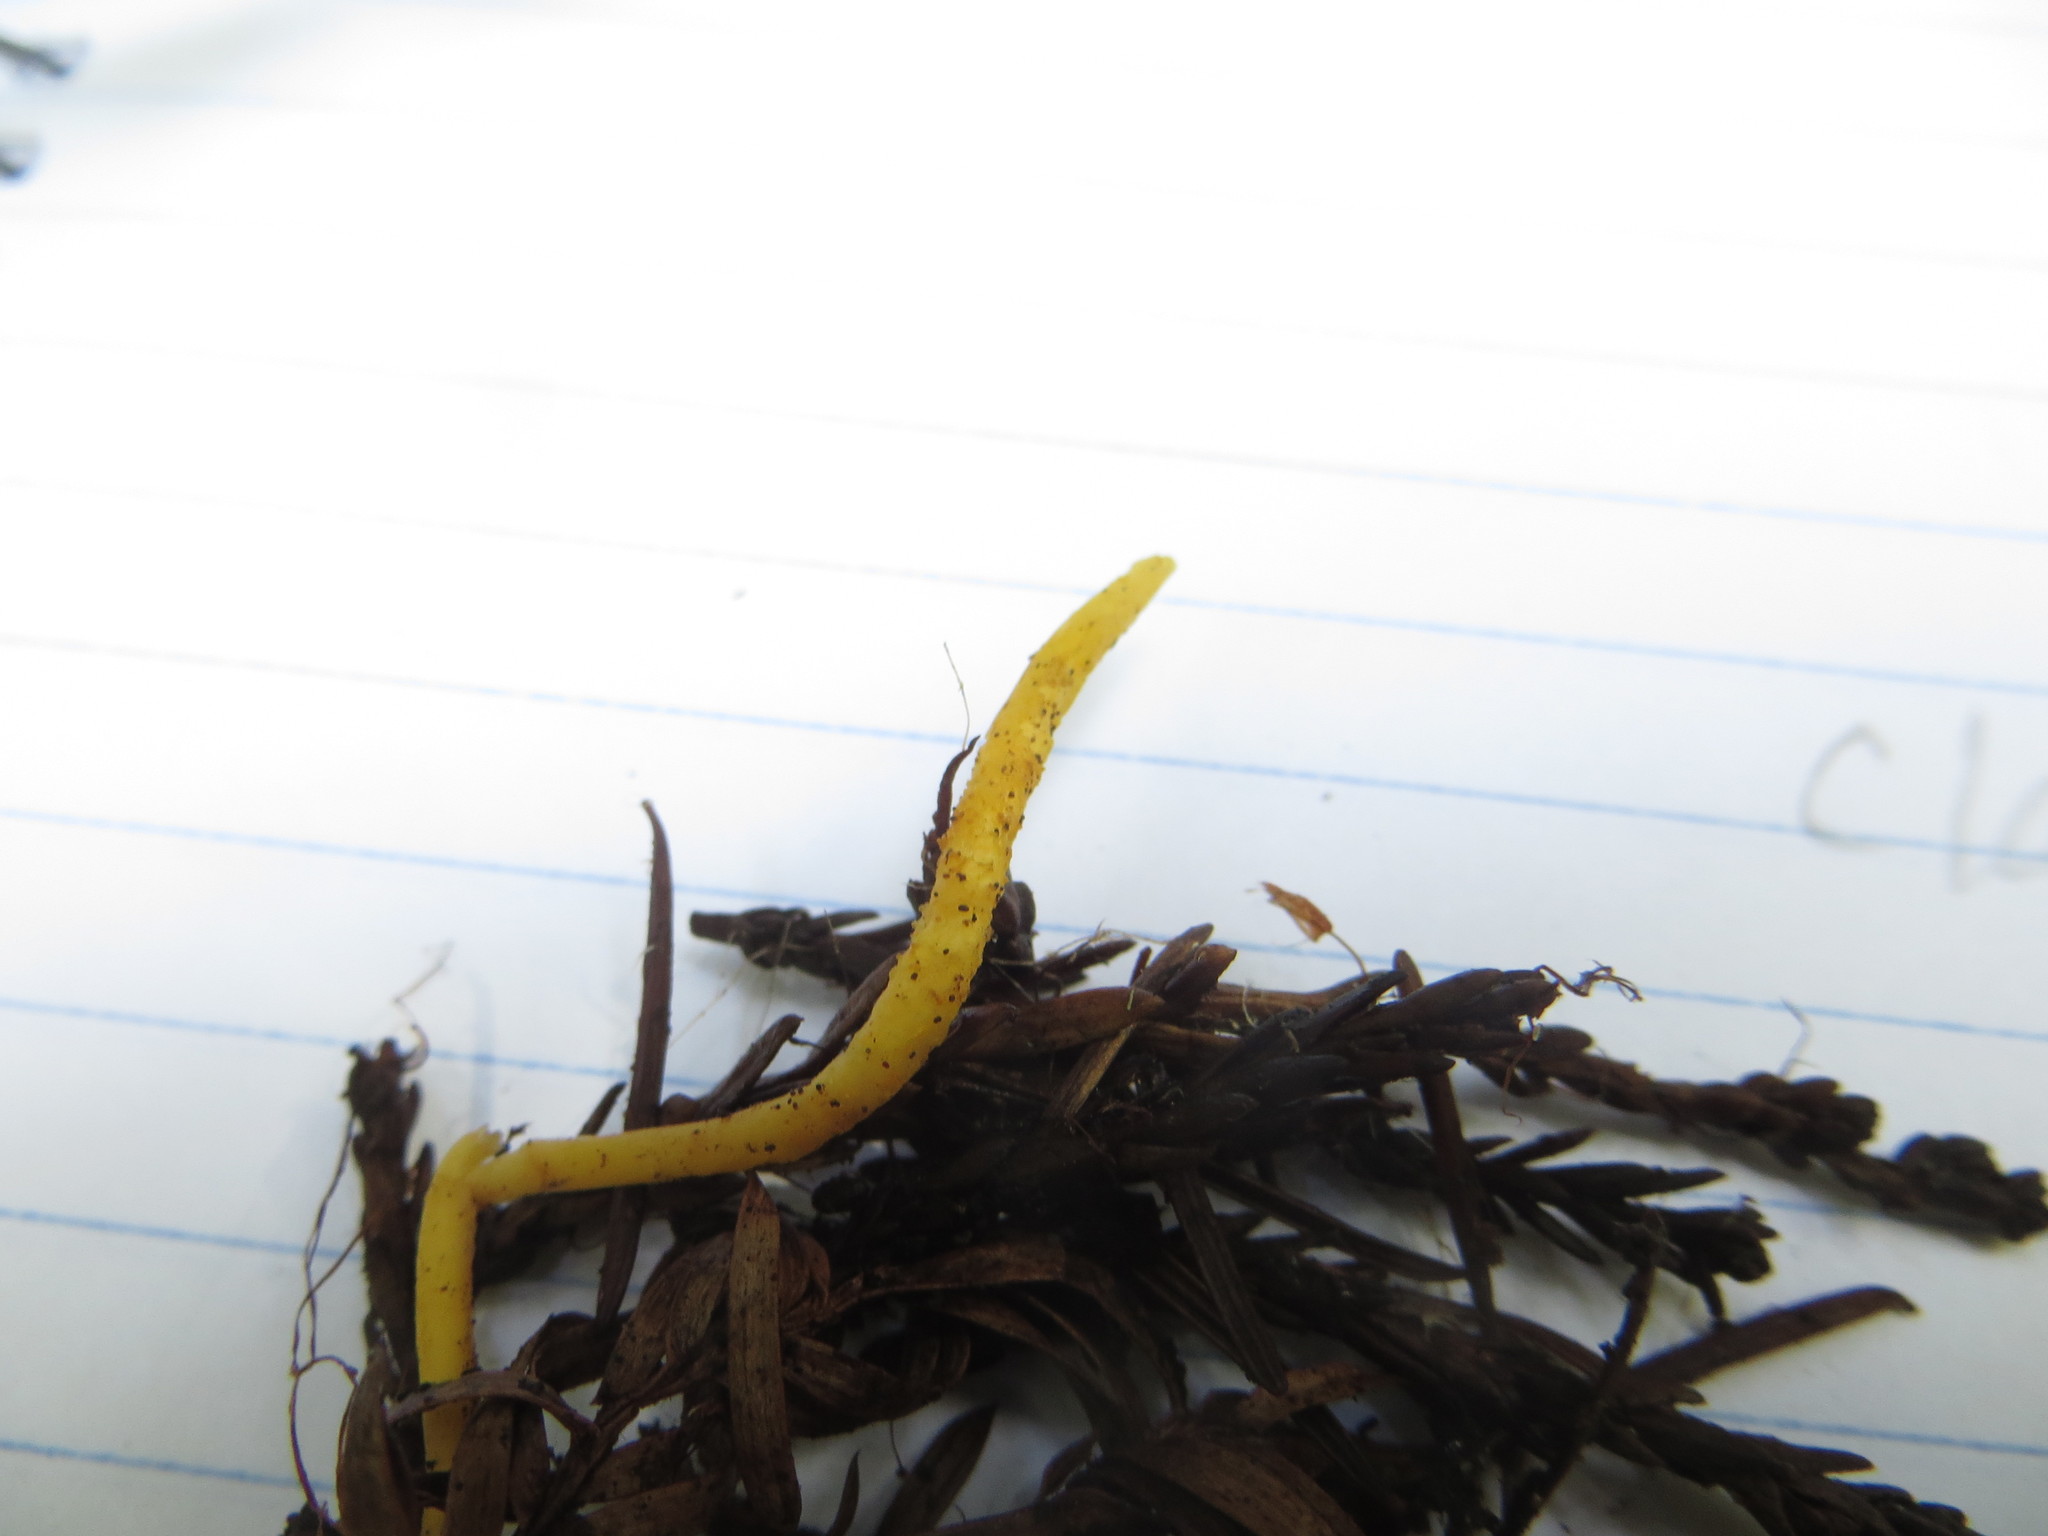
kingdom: Fungi
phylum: Basidiomycota
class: Agaricomycetes
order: Agaricales
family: Clavariaceae
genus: Clavulinopsis
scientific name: Clavulinopsis laeticolor
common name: Handsome club
